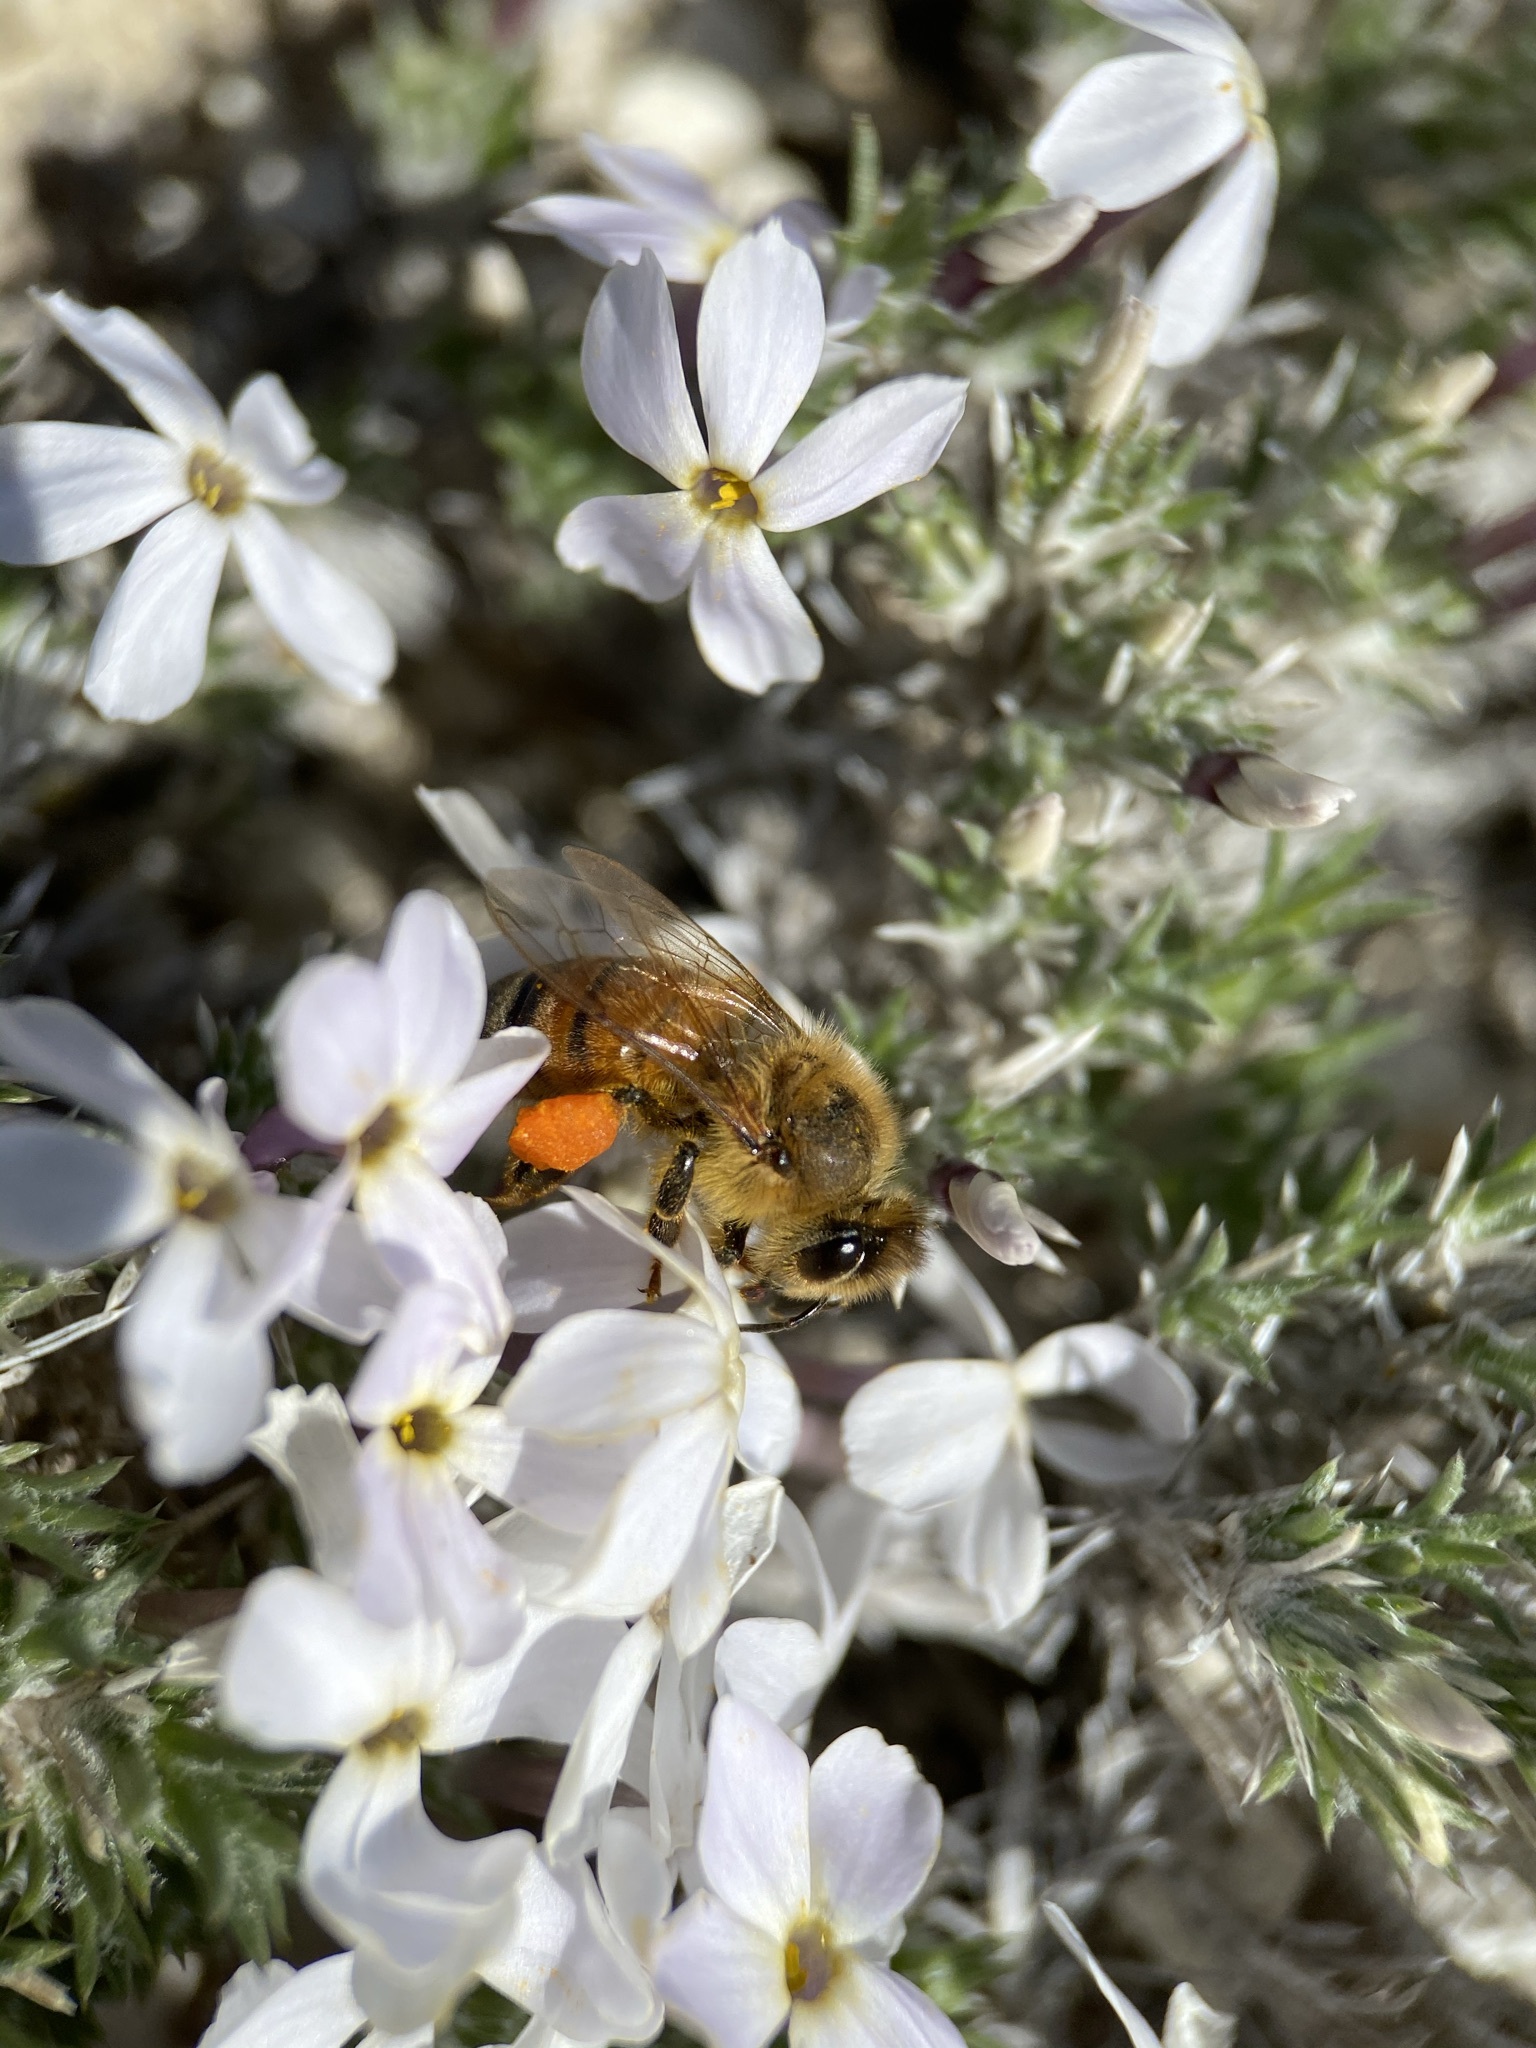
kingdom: Animalia
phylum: Arthropoda
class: Insecta
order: Hymenoptera
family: Apidae
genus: Apis
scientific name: Apis mellifera
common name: Honey bee
